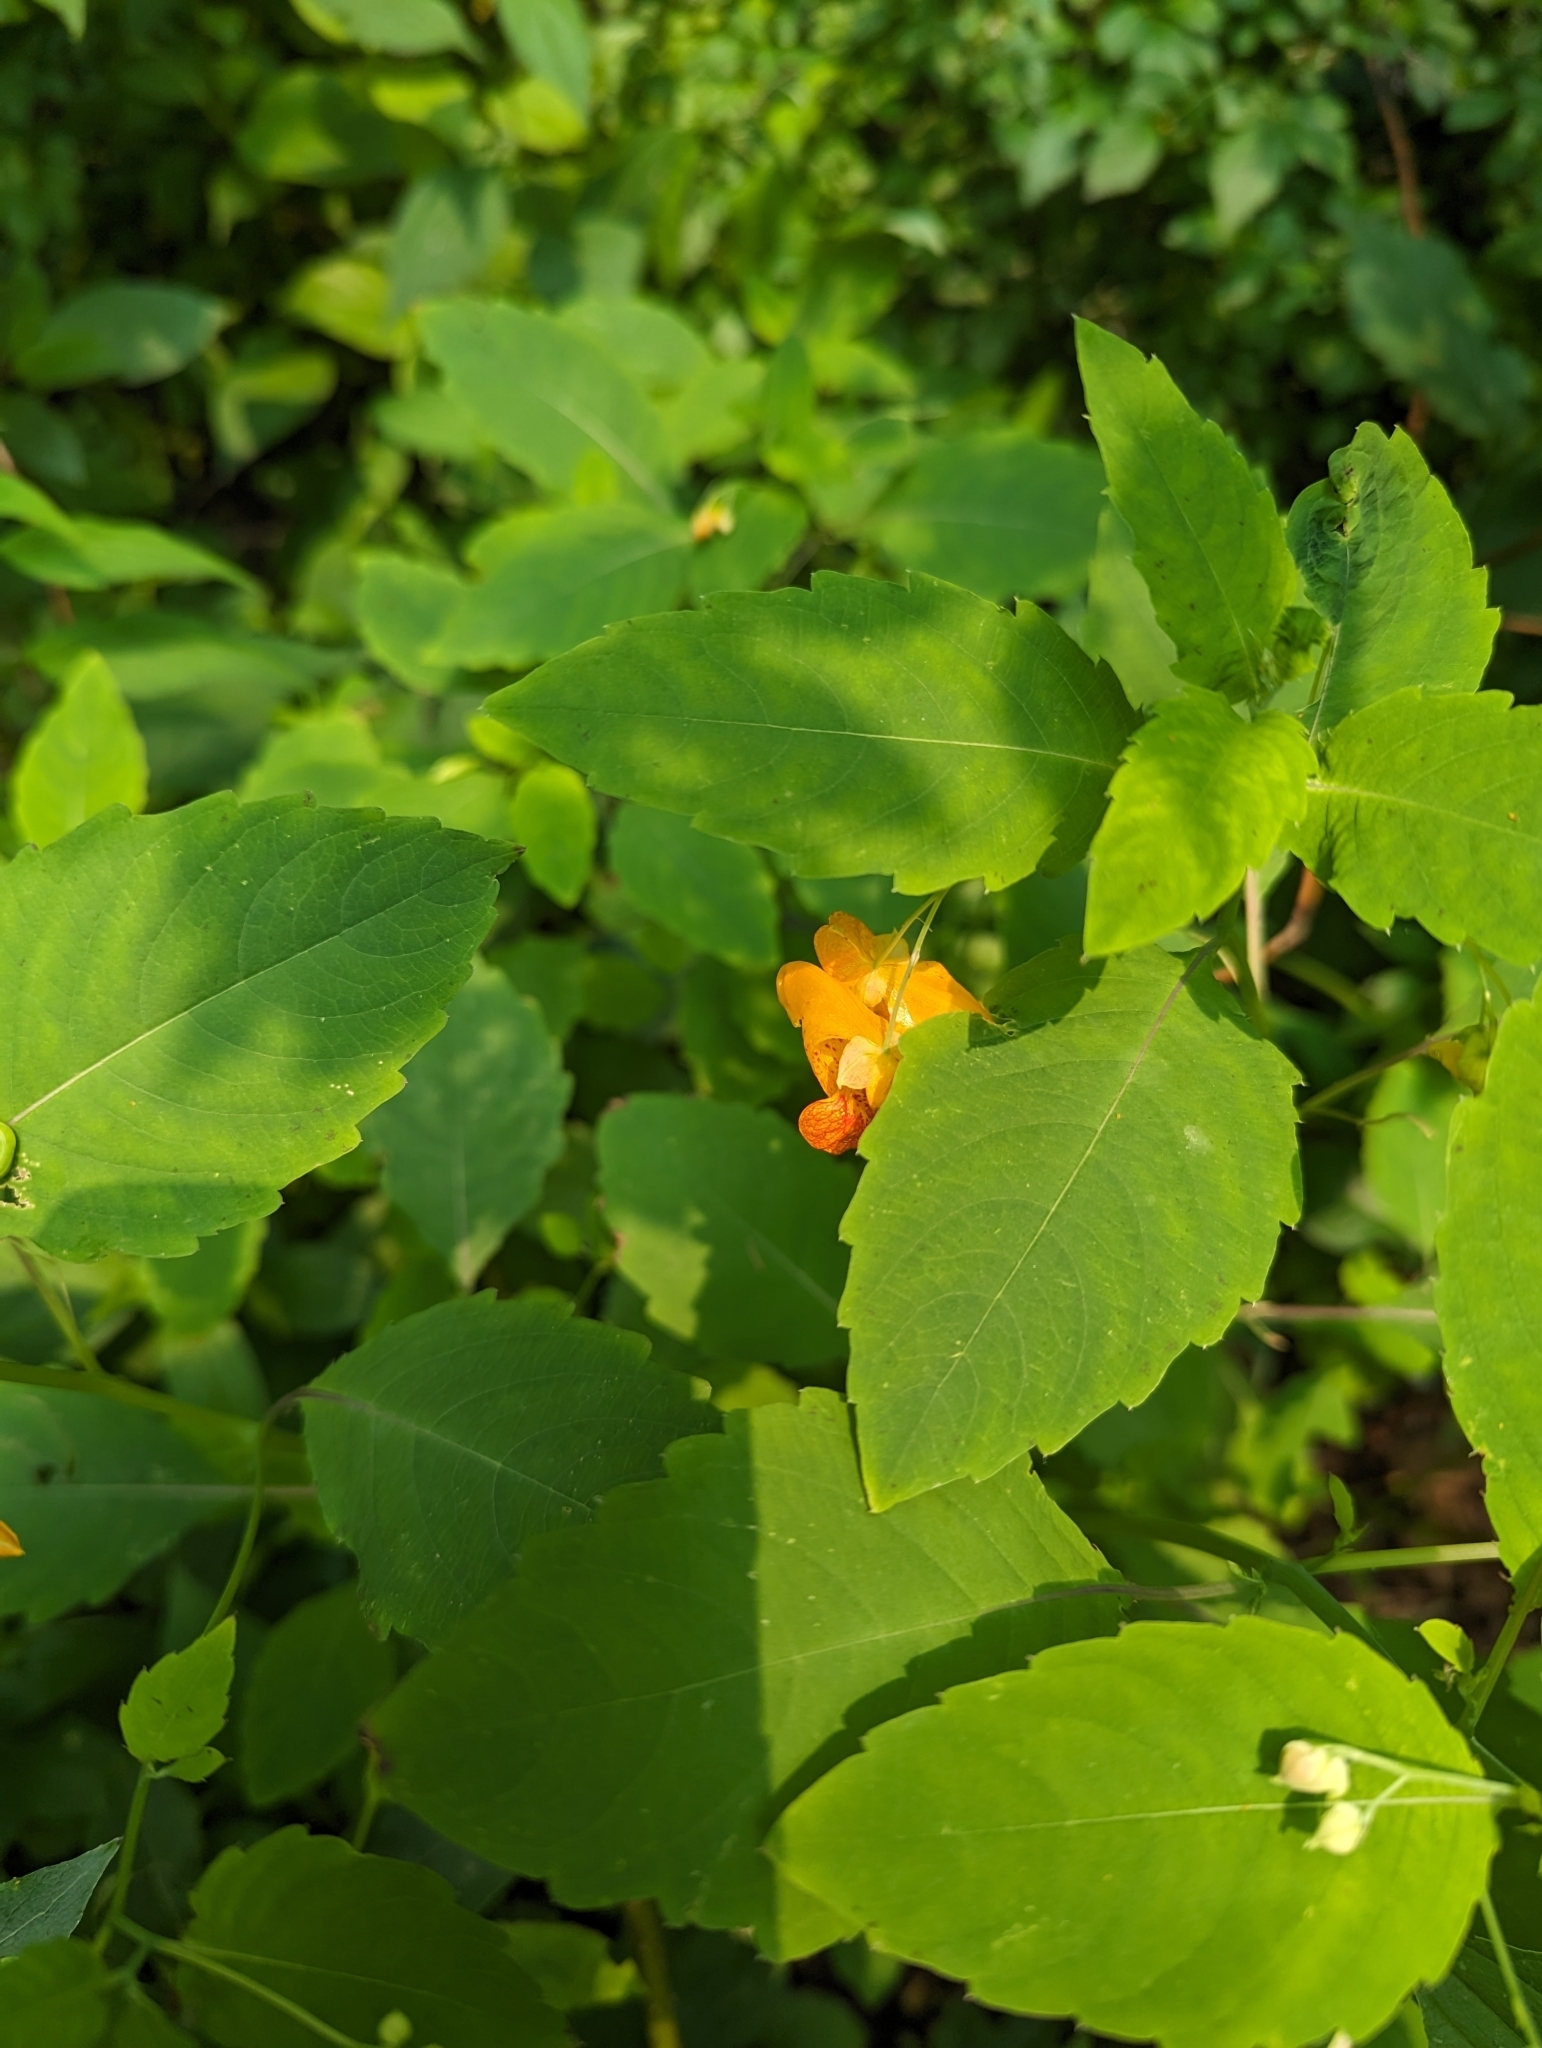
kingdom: Plantae
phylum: Tracheophyta
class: Magnoliopsida
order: Ericales
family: Balsaminaceae
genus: Impatiens
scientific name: Impatiens capensis
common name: Orange balsam
